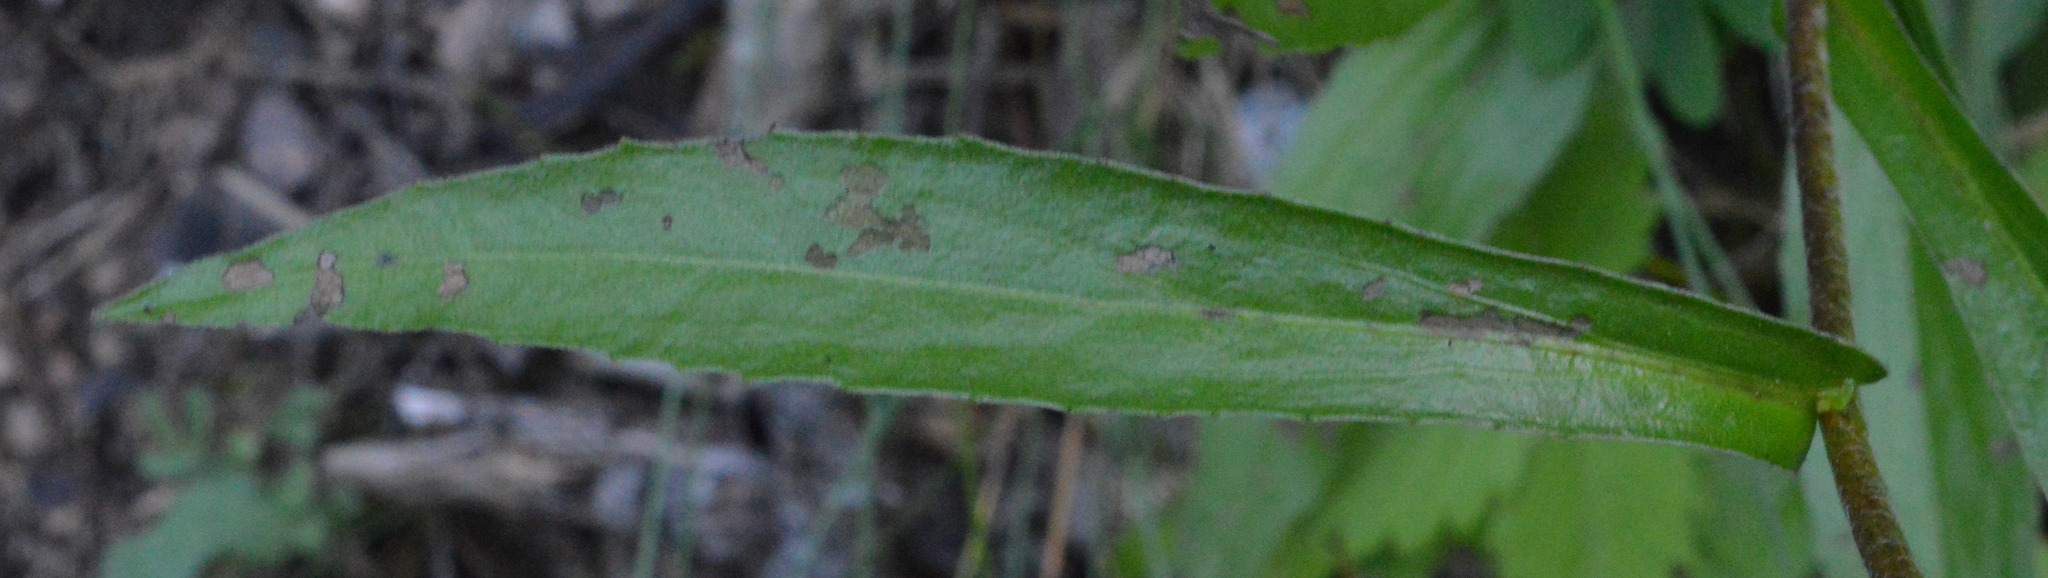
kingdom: Plantae
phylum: Tracheophyta
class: Magnoliopsida
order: Asterales
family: Asteraceae
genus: Buphthalmum
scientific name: Buphthalmum salicifolium
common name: Willow-leaved yellow-oxeye
